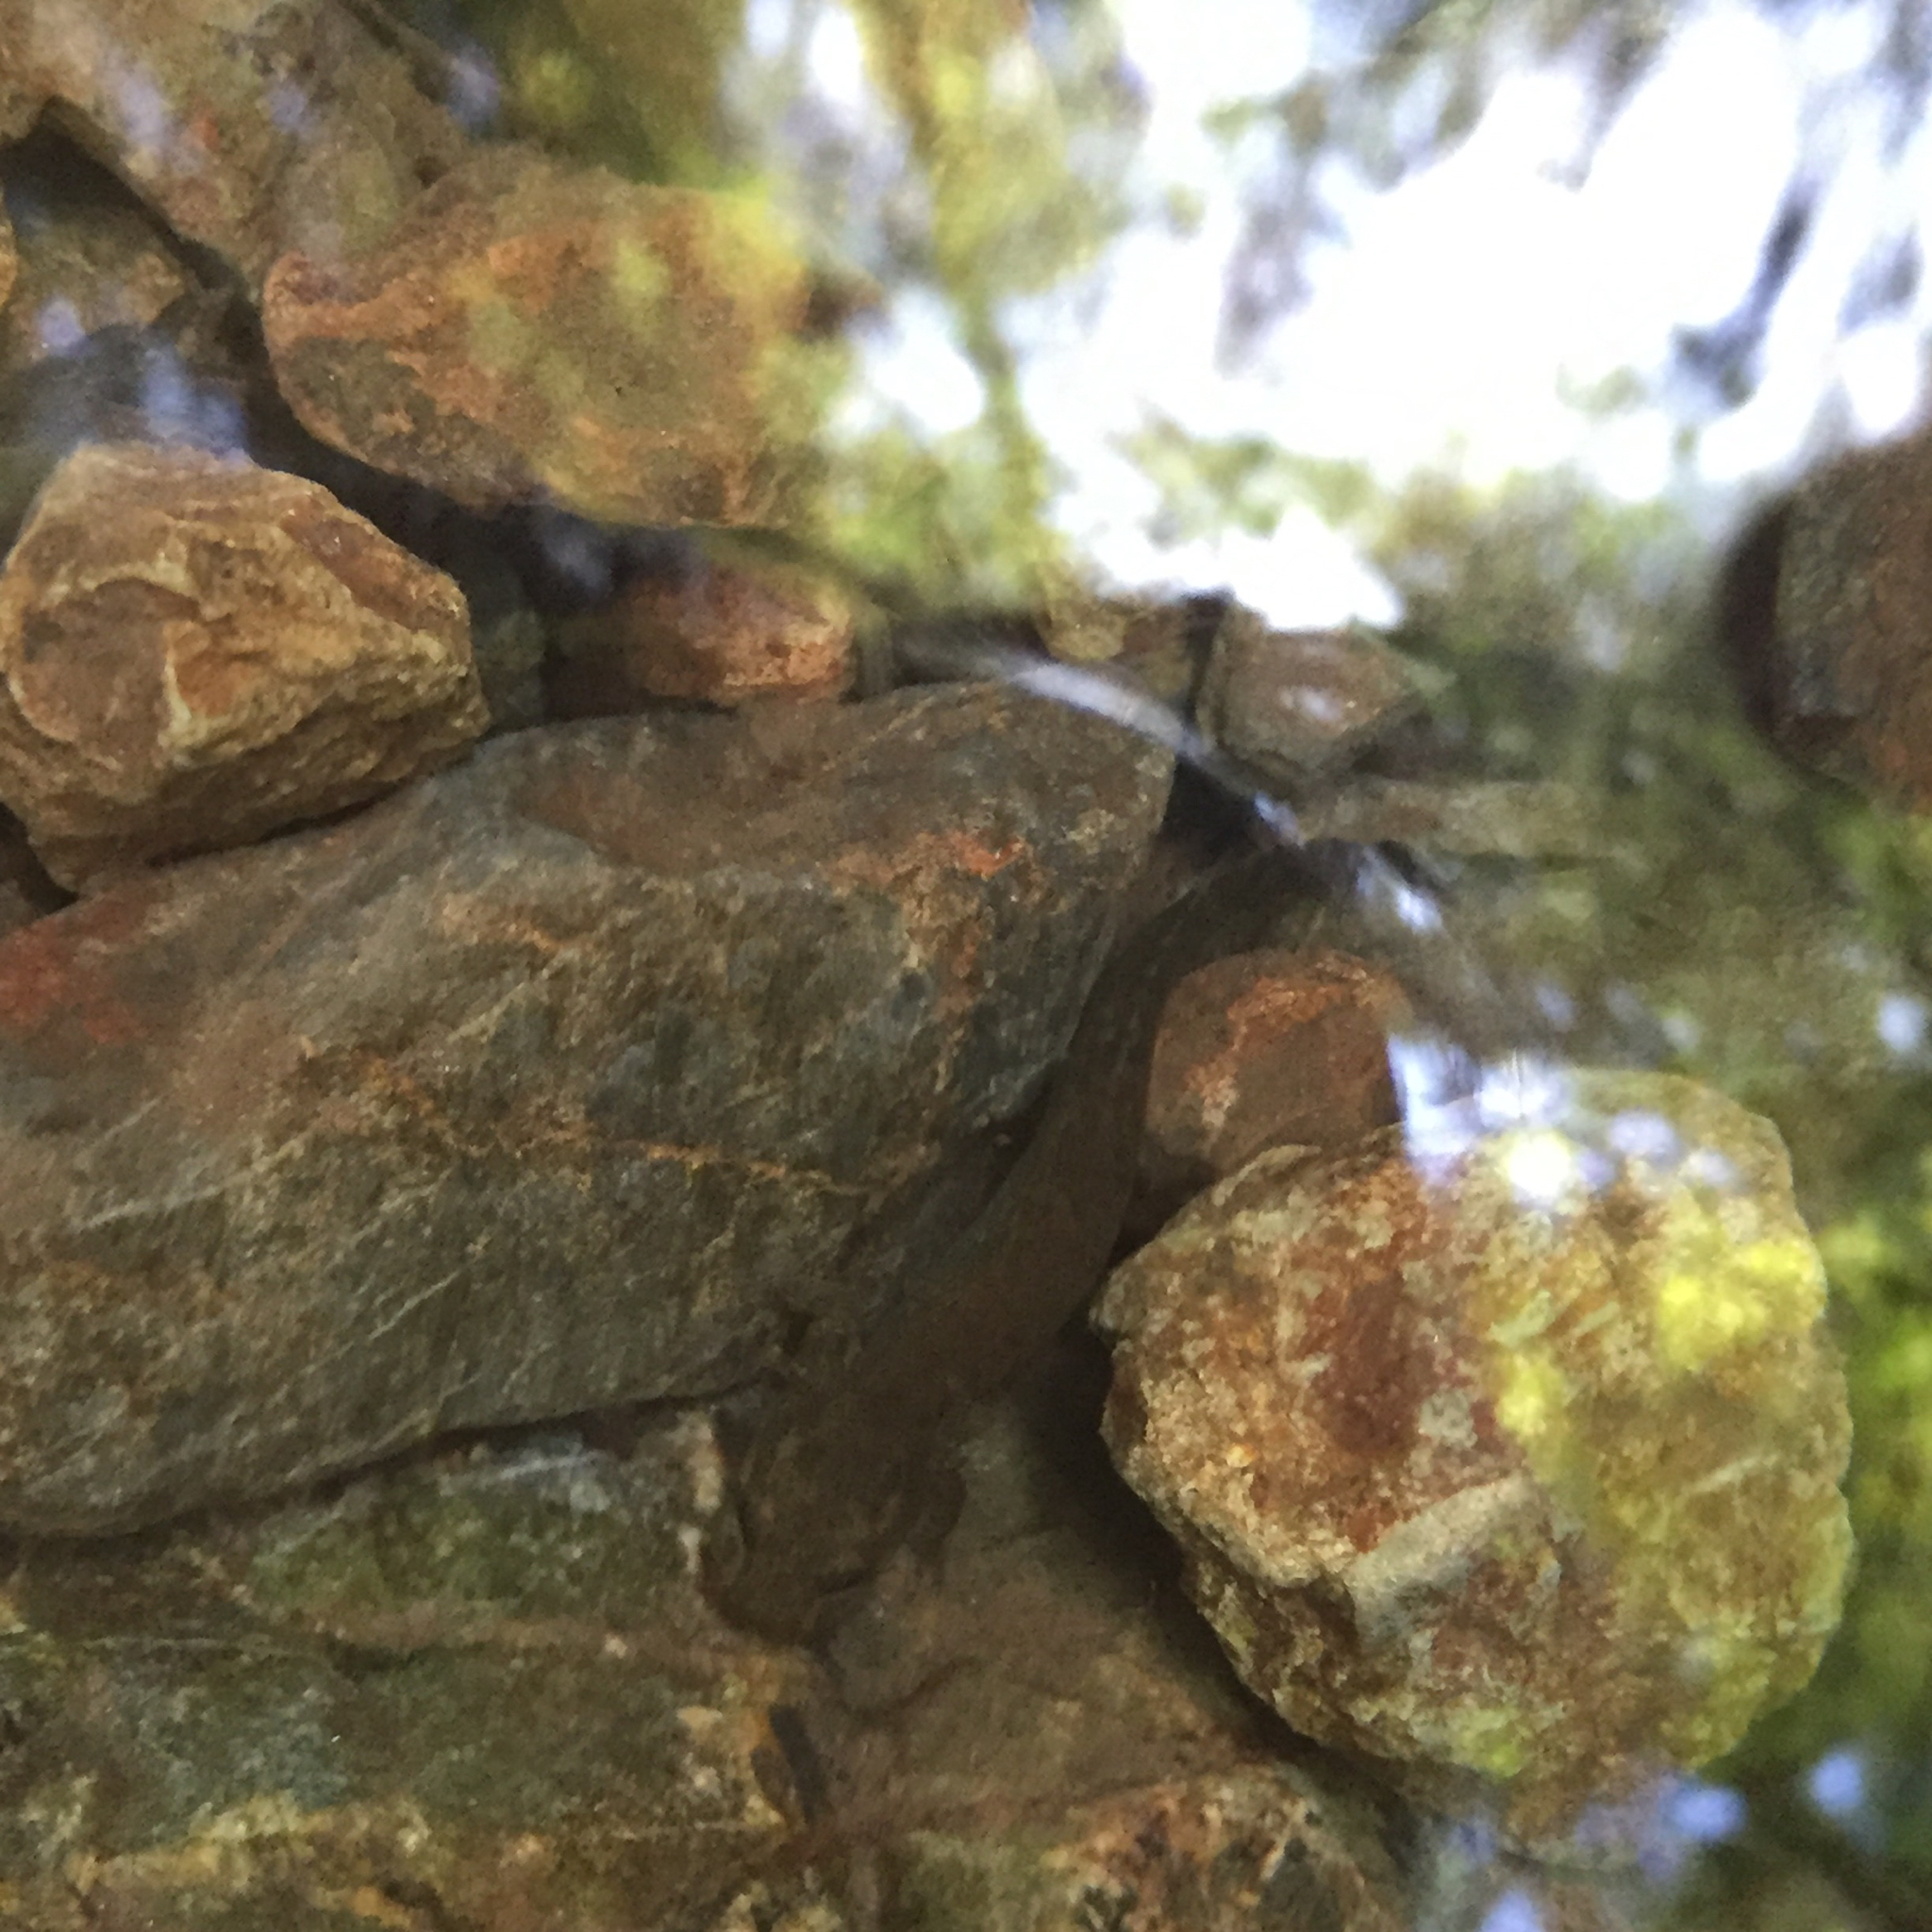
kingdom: Animalia
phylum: Chordata
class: Amphibia
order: Caudata
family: Ambystomatidae
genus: Dicamptodon
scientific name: Dicamptodon ensatus
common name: California giant salamander
